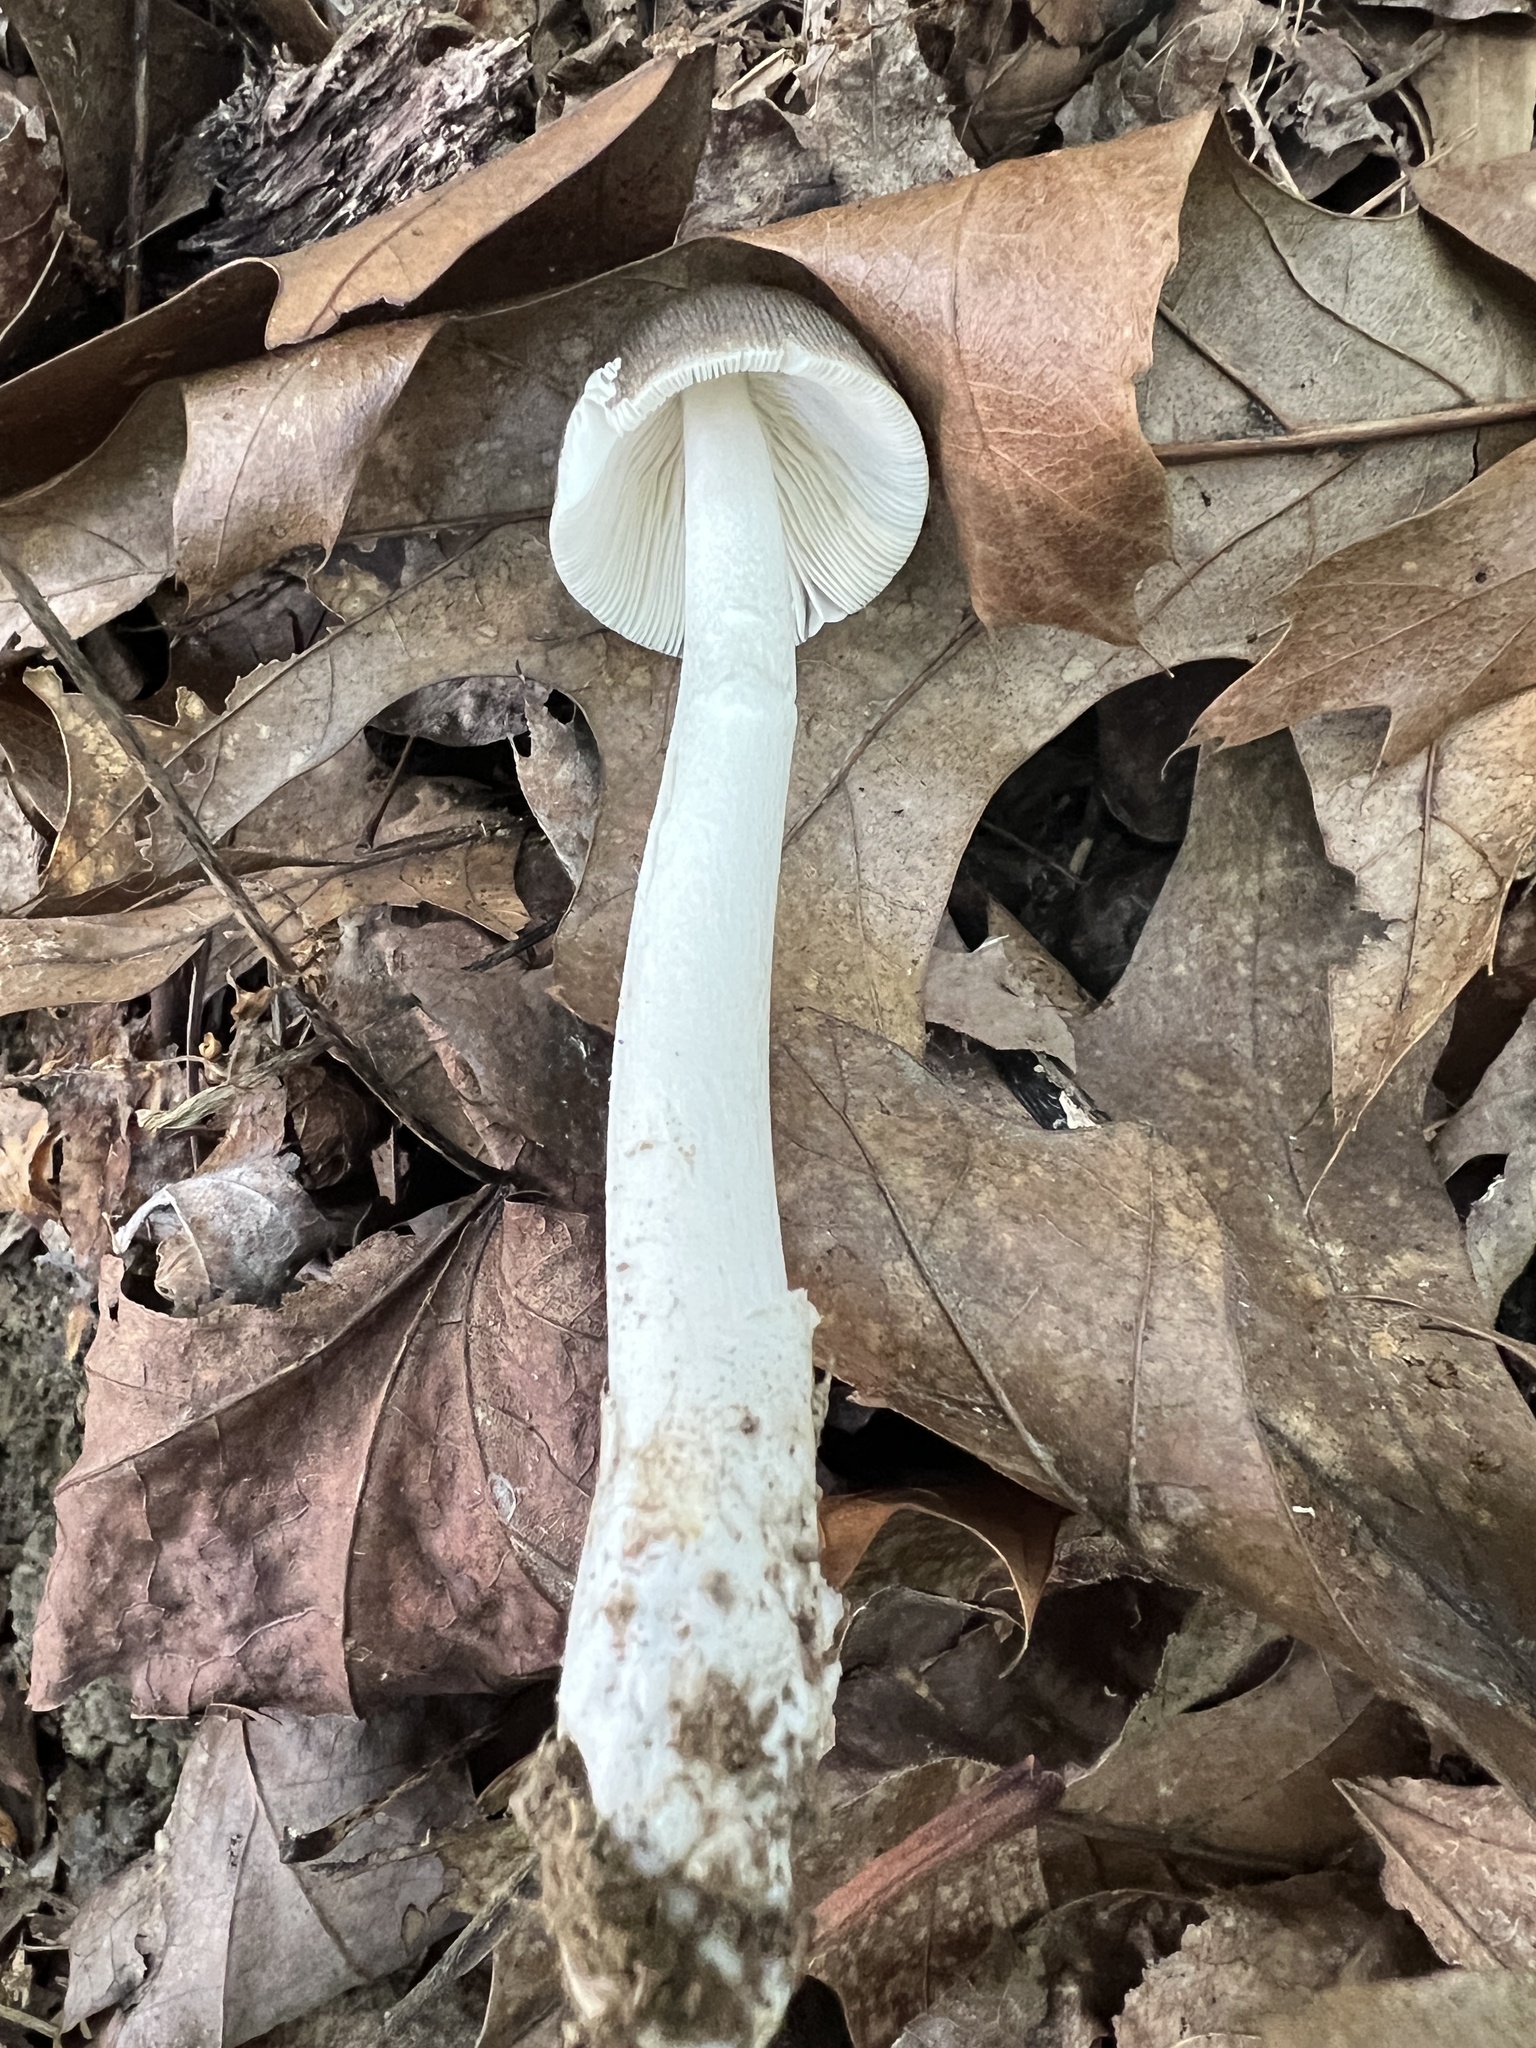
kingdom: Fungi
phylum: Basidiomycota
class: Agaricomycetes
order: Agaricales
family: Amanitaceae
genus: Amanita
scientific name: Amanita vaginata
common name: Grisette
